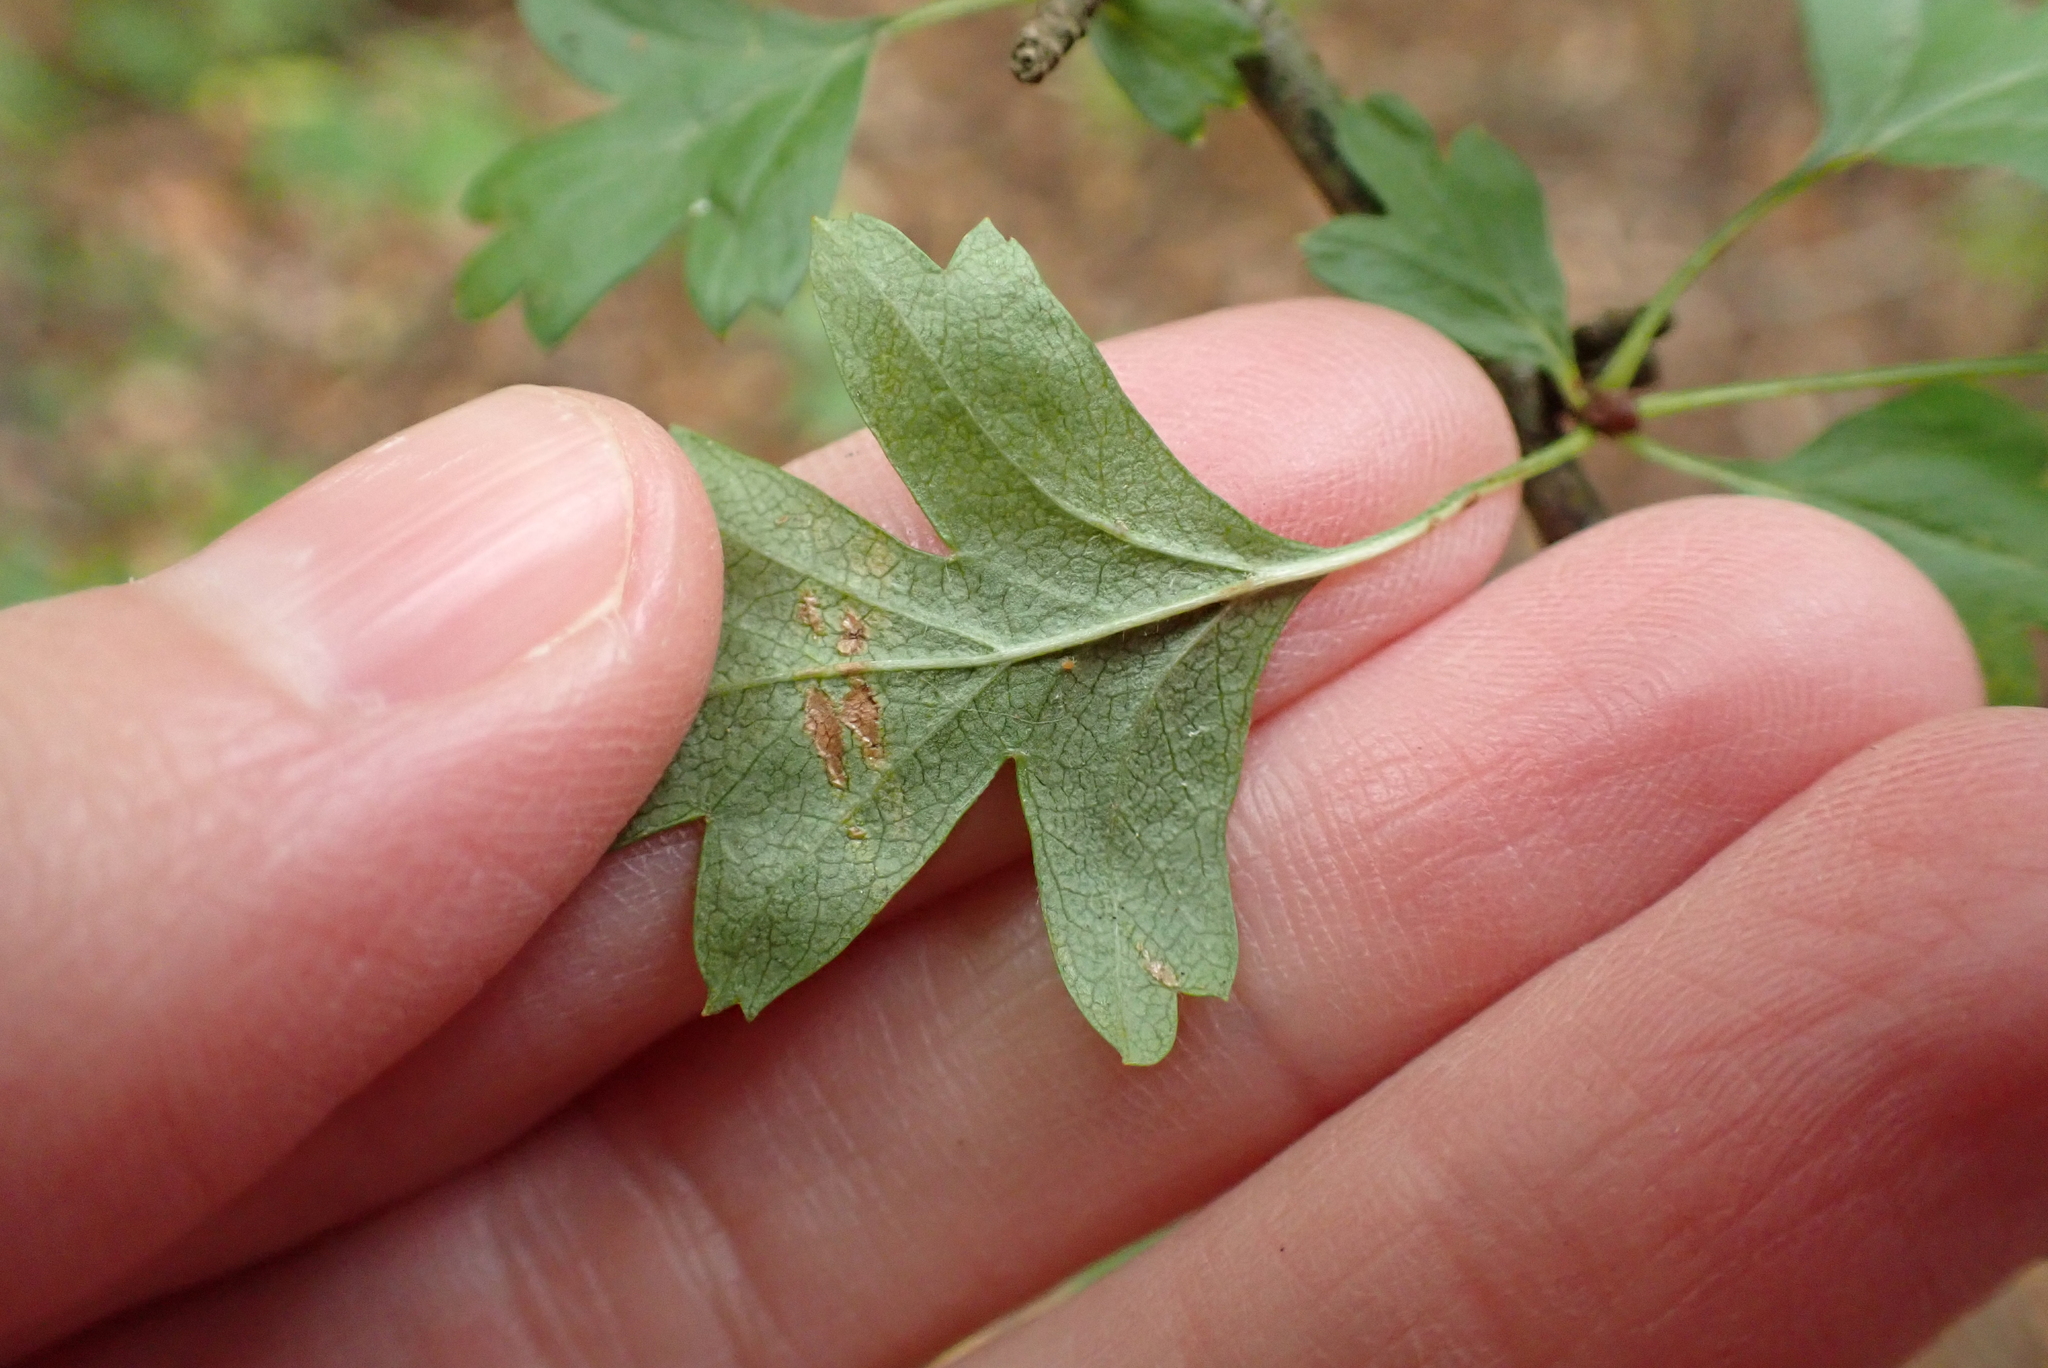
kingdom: Plantae
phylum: Tracheophyta
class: Magnoliopsida
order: Rosales
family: Rosaceae
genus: Crataegus
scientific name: Crataegus monogyna
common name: Hawthorn
